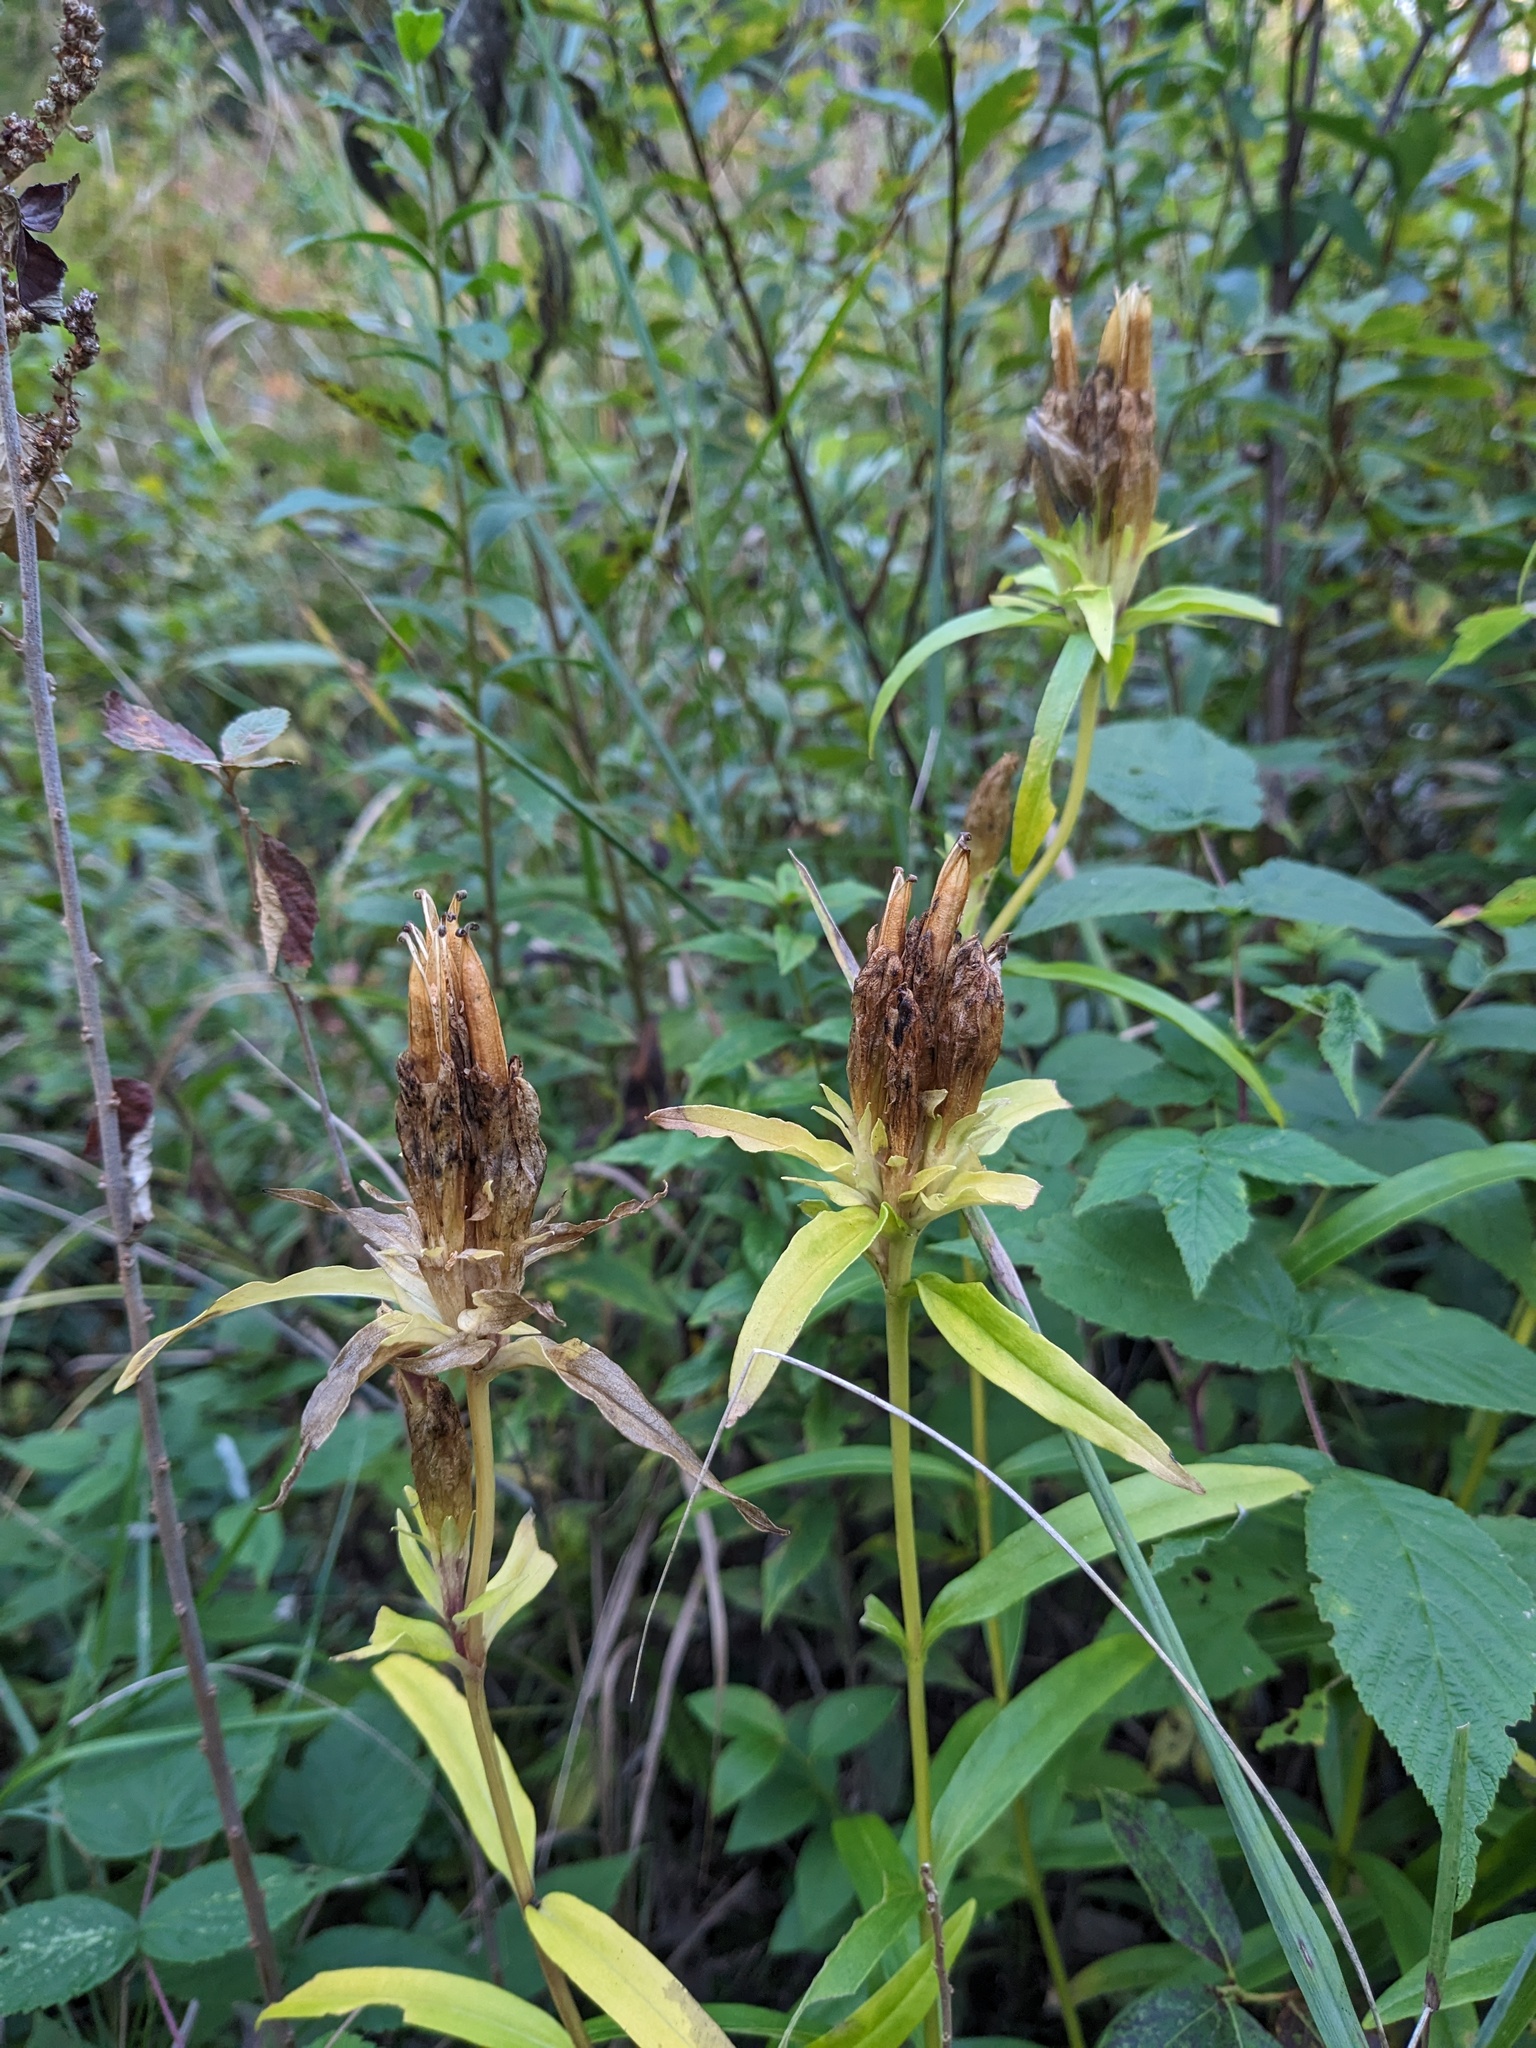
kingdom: Plantae
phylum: Tracheophyta
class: Magnoliopsida
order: Gentianales
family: Gentianaceae
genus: Gentiana
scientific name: Gentiana linearis
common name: Bastard gentian
